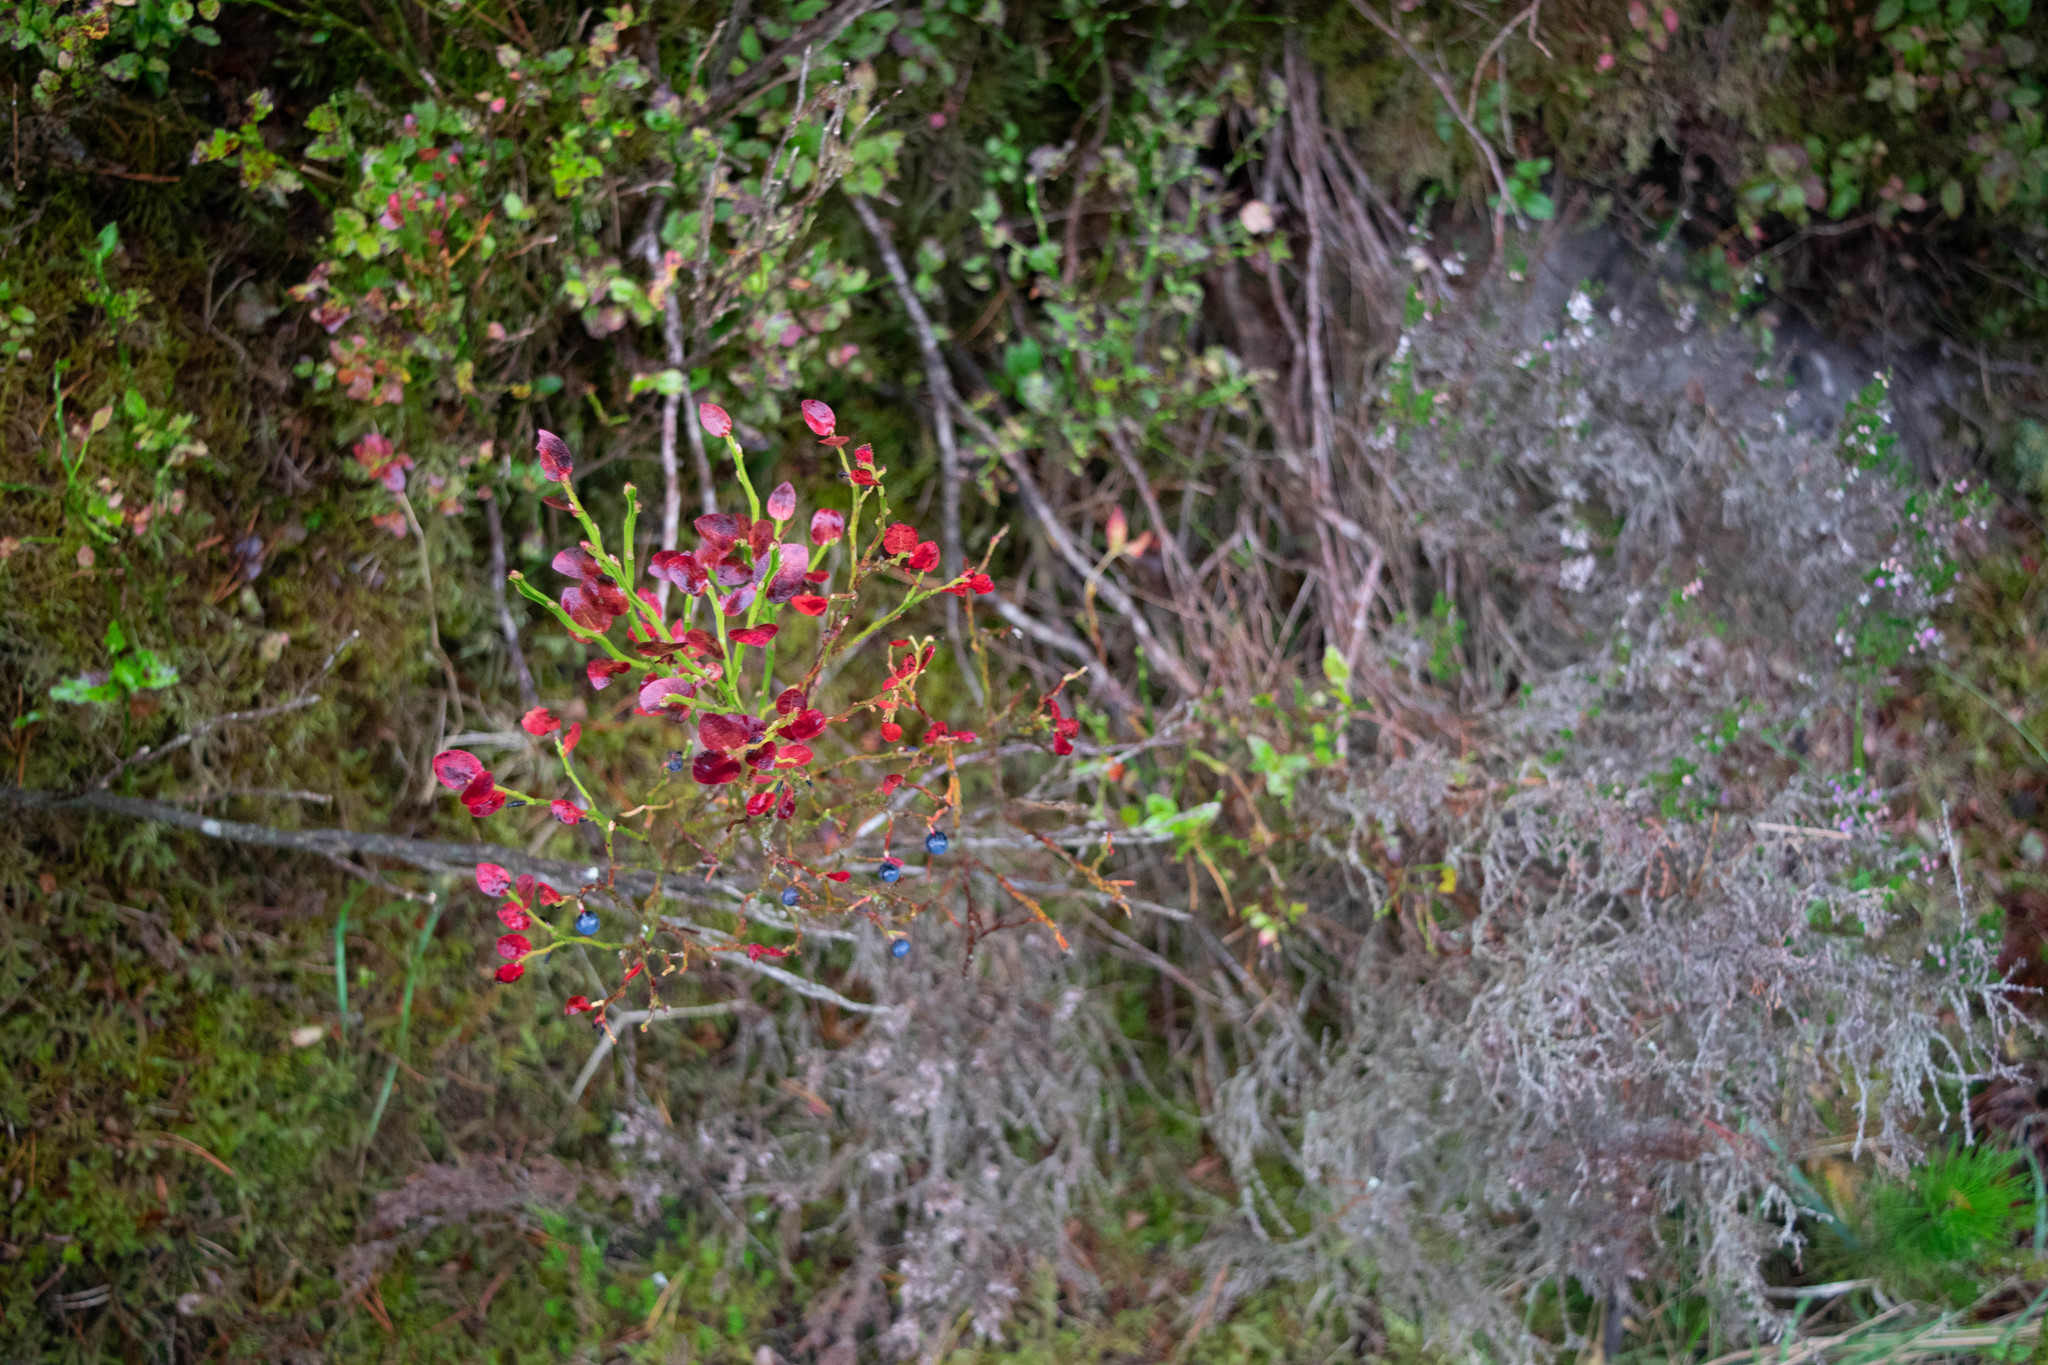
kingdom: Plantae
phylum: Tracheophyta
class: Magnoliopsida
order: Ericales
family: Ericaceae
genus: Vaccinium
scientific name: Vaccinium myrtillus
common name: Bilberry
